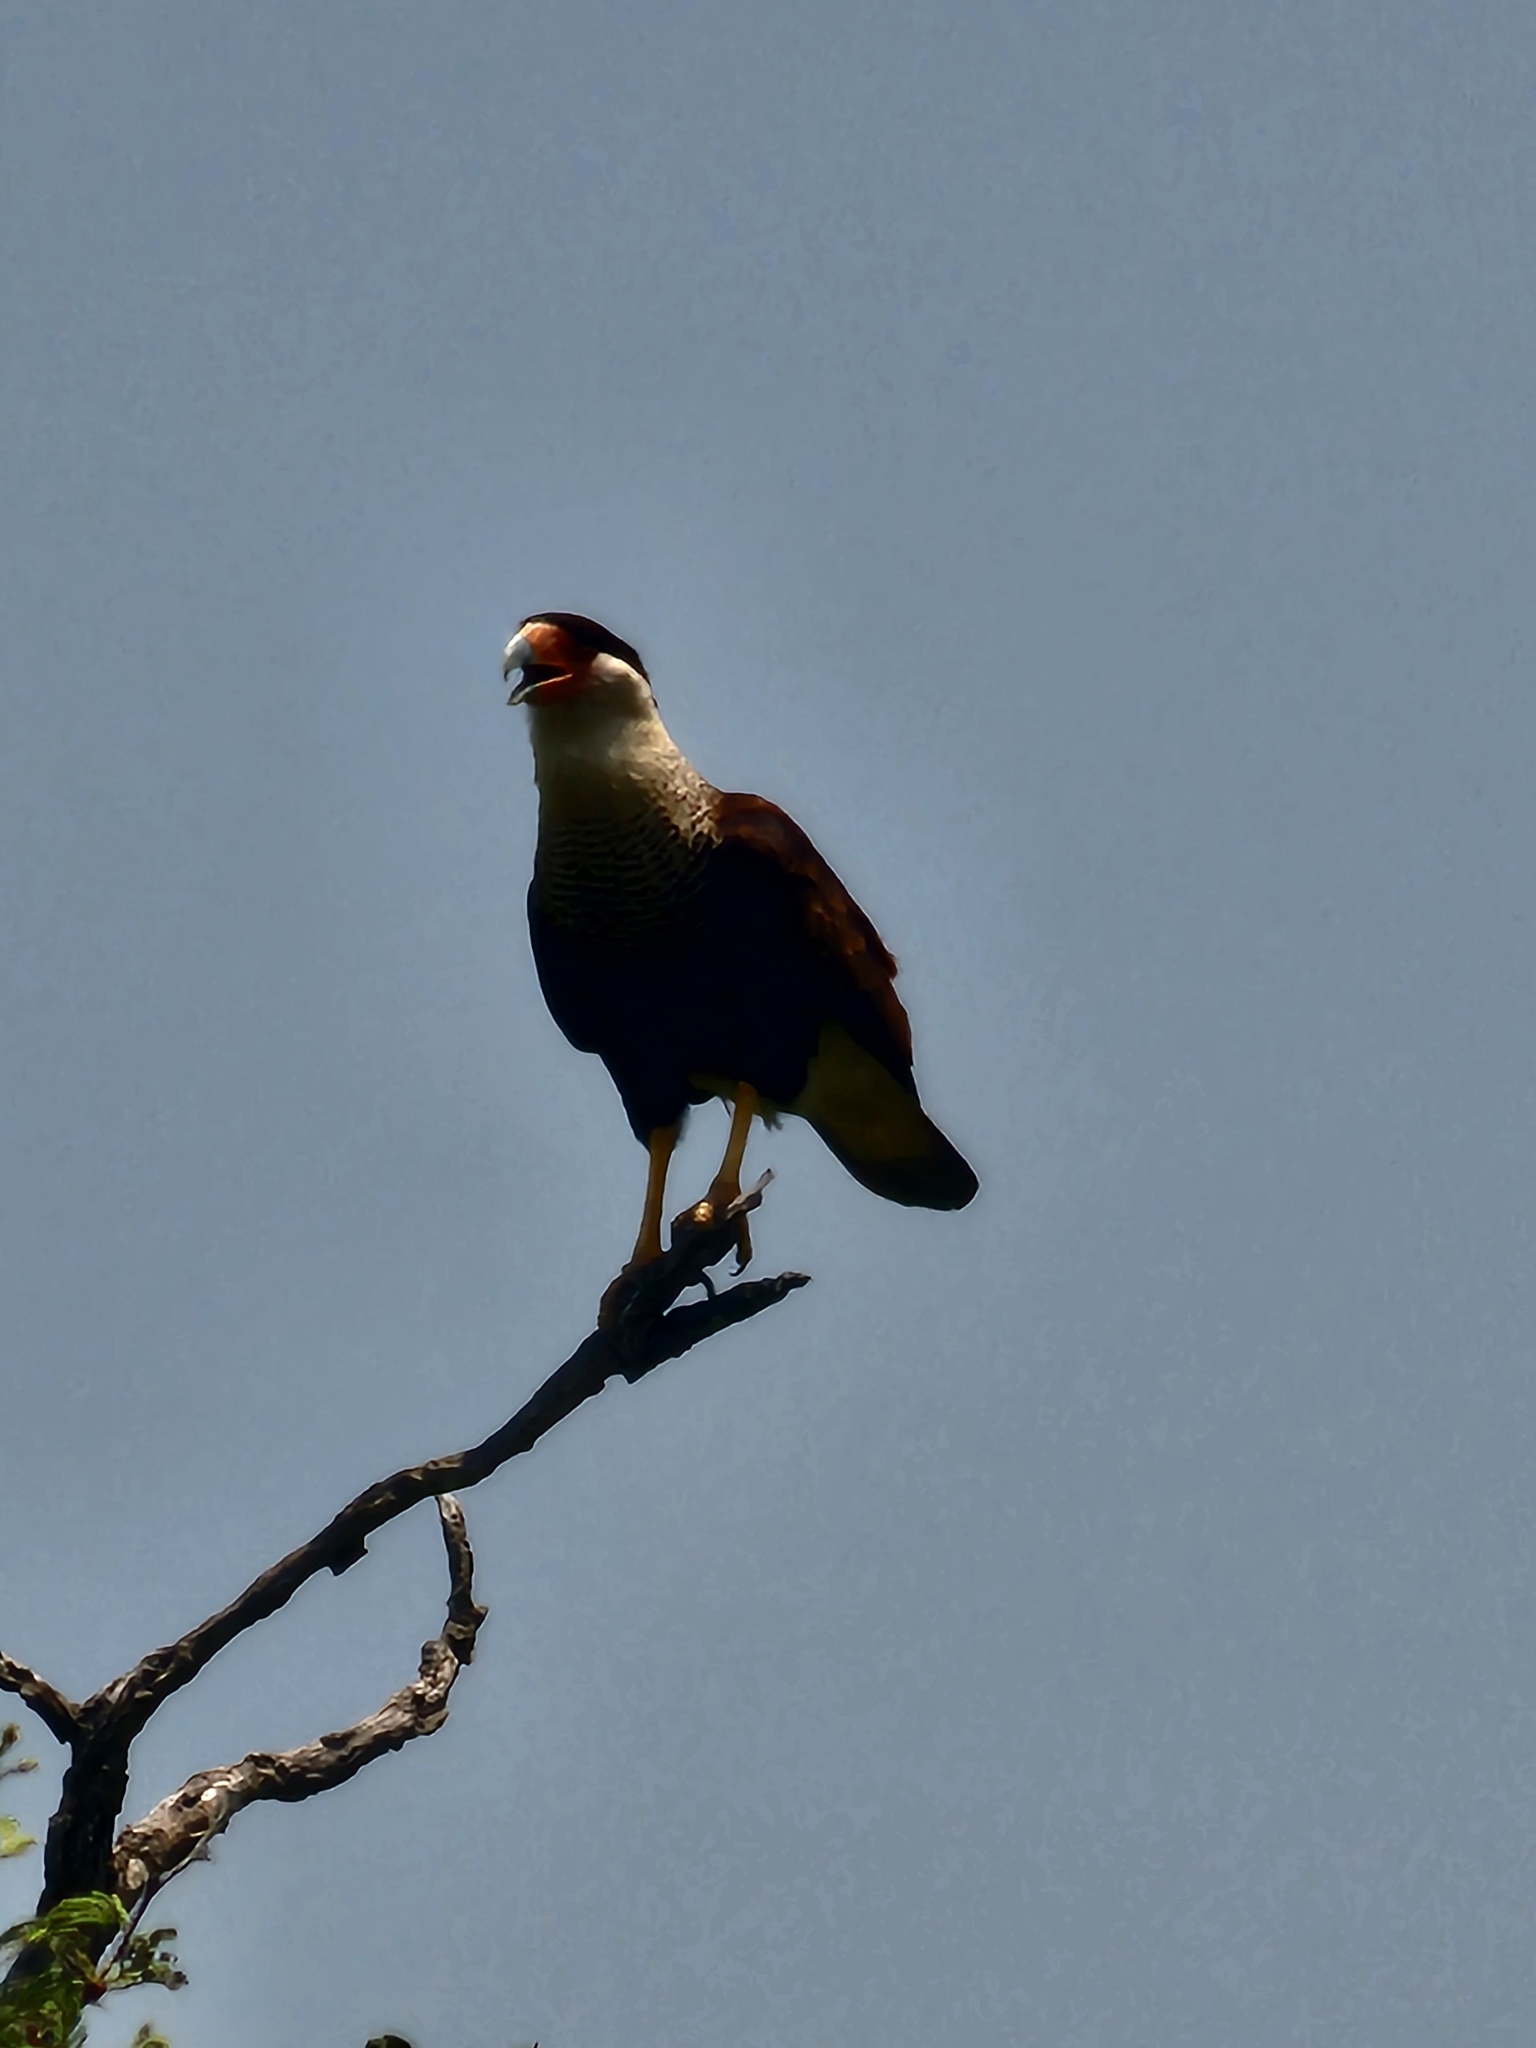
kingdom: Animalia
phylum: Chordata
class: Aves
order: Falconiformes
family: Falconidae
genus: Caracara
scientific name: Caracara plancus
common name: Southern caracara
